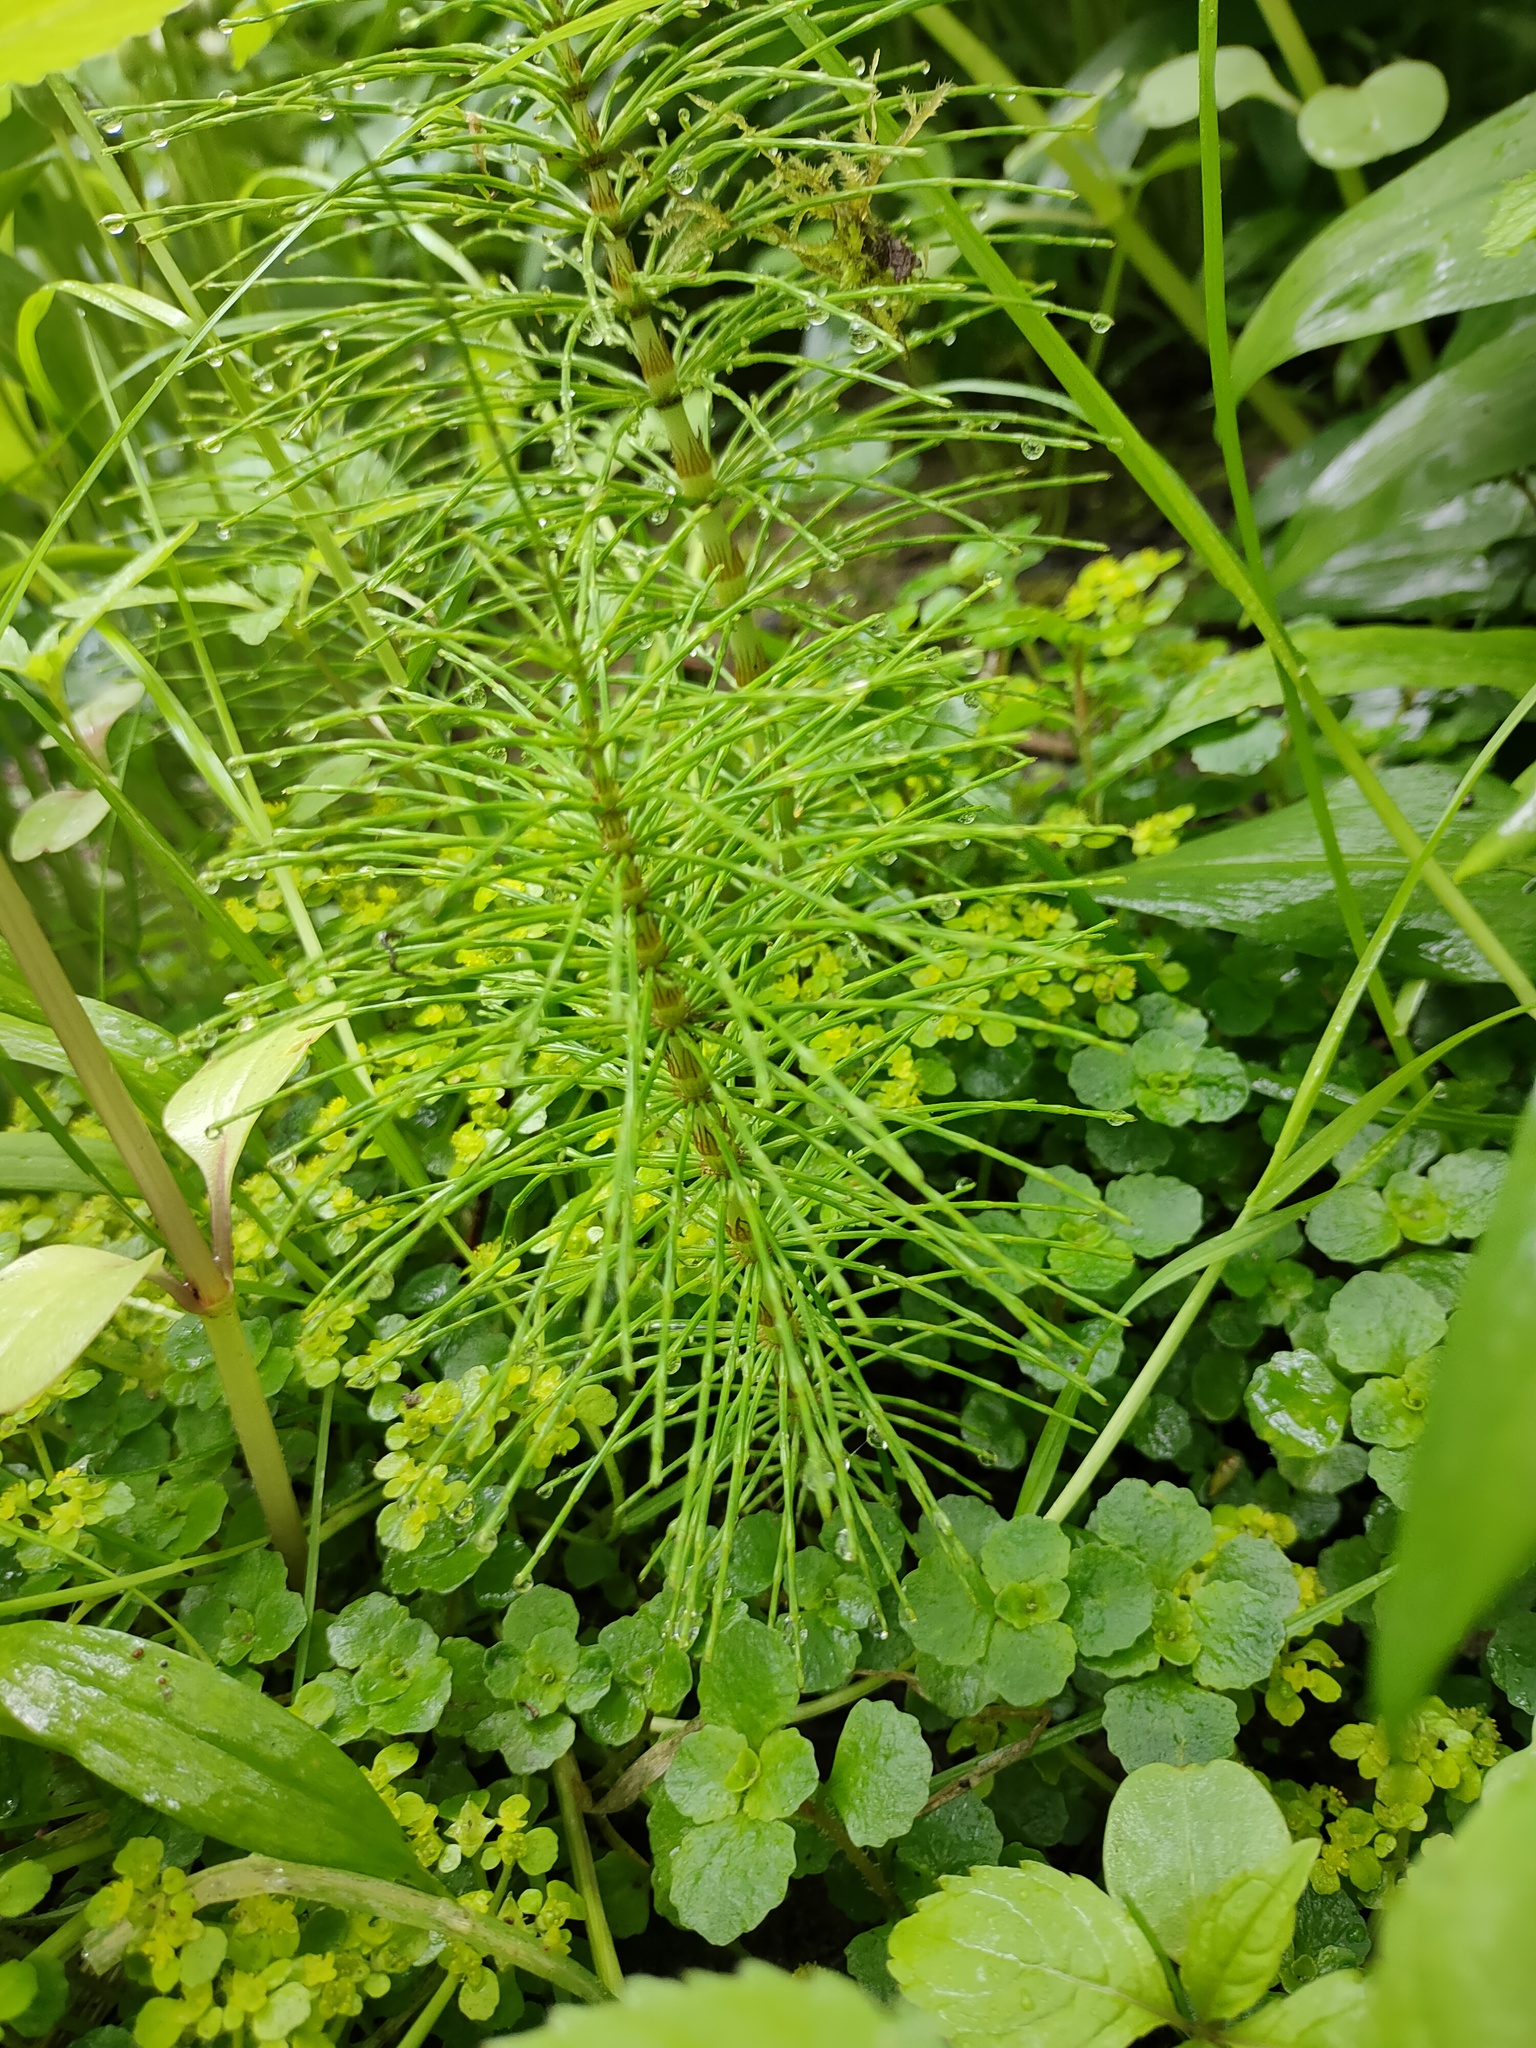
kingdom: Plantae
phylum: Tracheophyta
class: Polypodiopsida
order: Equisetales
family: Equisetaceae
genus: Equisetum
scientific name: Equisetum telmateia
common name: Great horsetail
